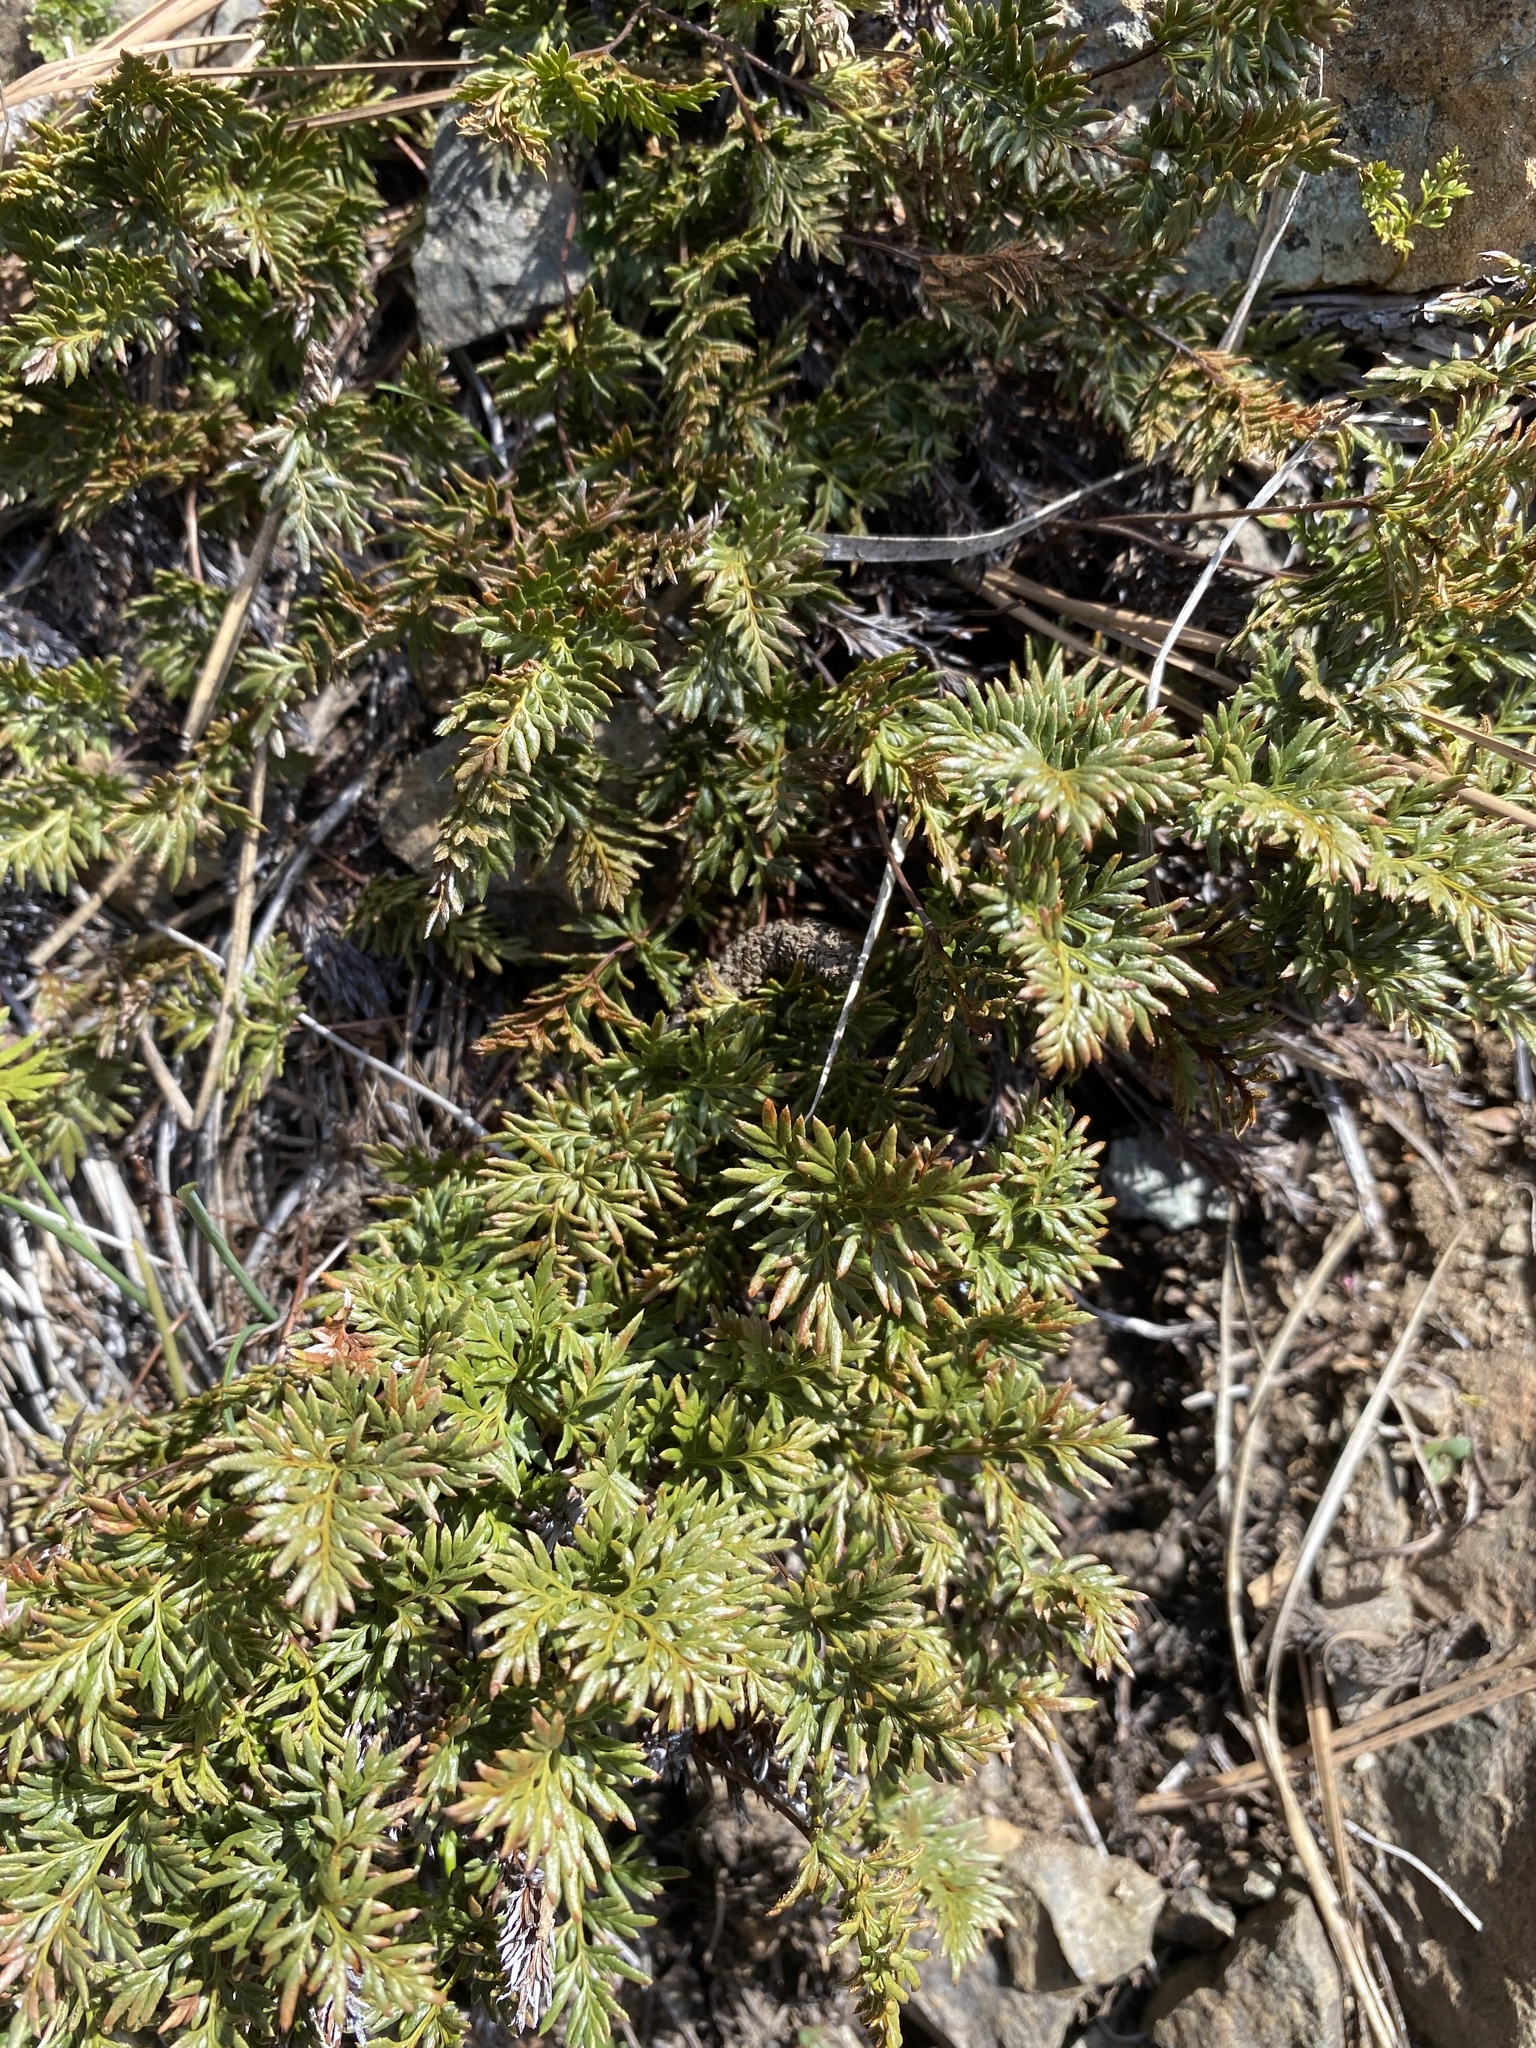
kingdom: Plantae
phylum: Tracheophyta
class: Polypodiopsida
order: Polypodiales
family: Pteridaceae
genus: Aspidotis
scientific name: Aspidotis densa
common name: Indian's dream
